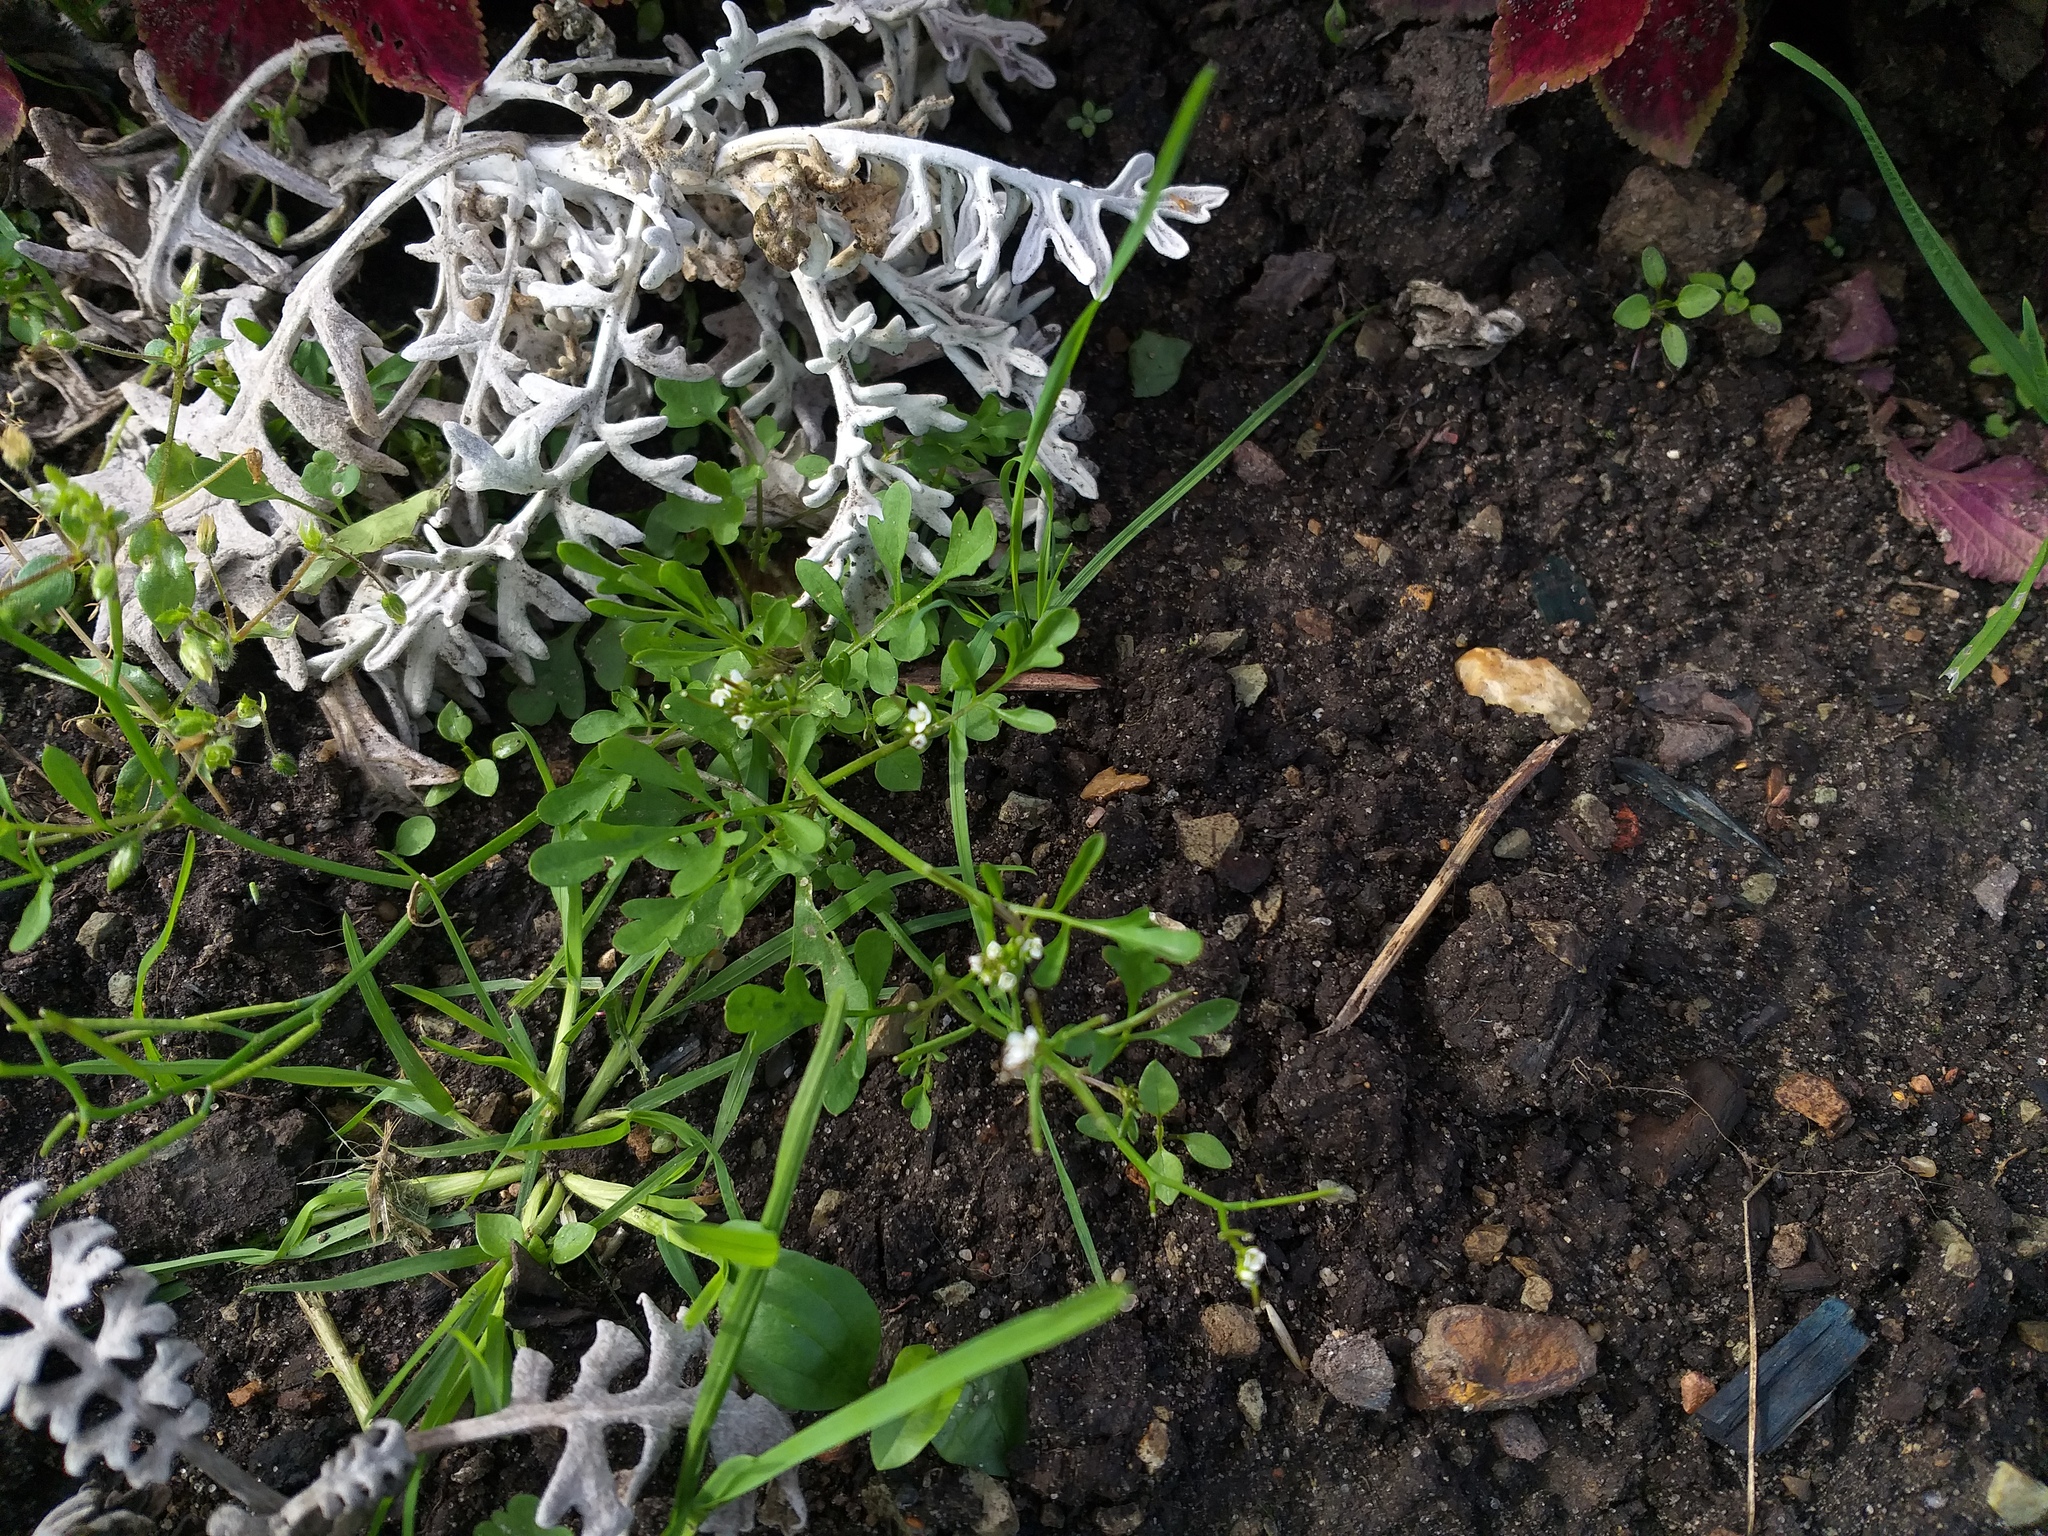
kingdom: Plantae
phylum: Tracheophyta
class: Magnoliopsida
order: Brassicales
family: Brassicaceae
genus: Cardamine
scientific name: Cardamine occulta
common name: Asian wavy bittercress
